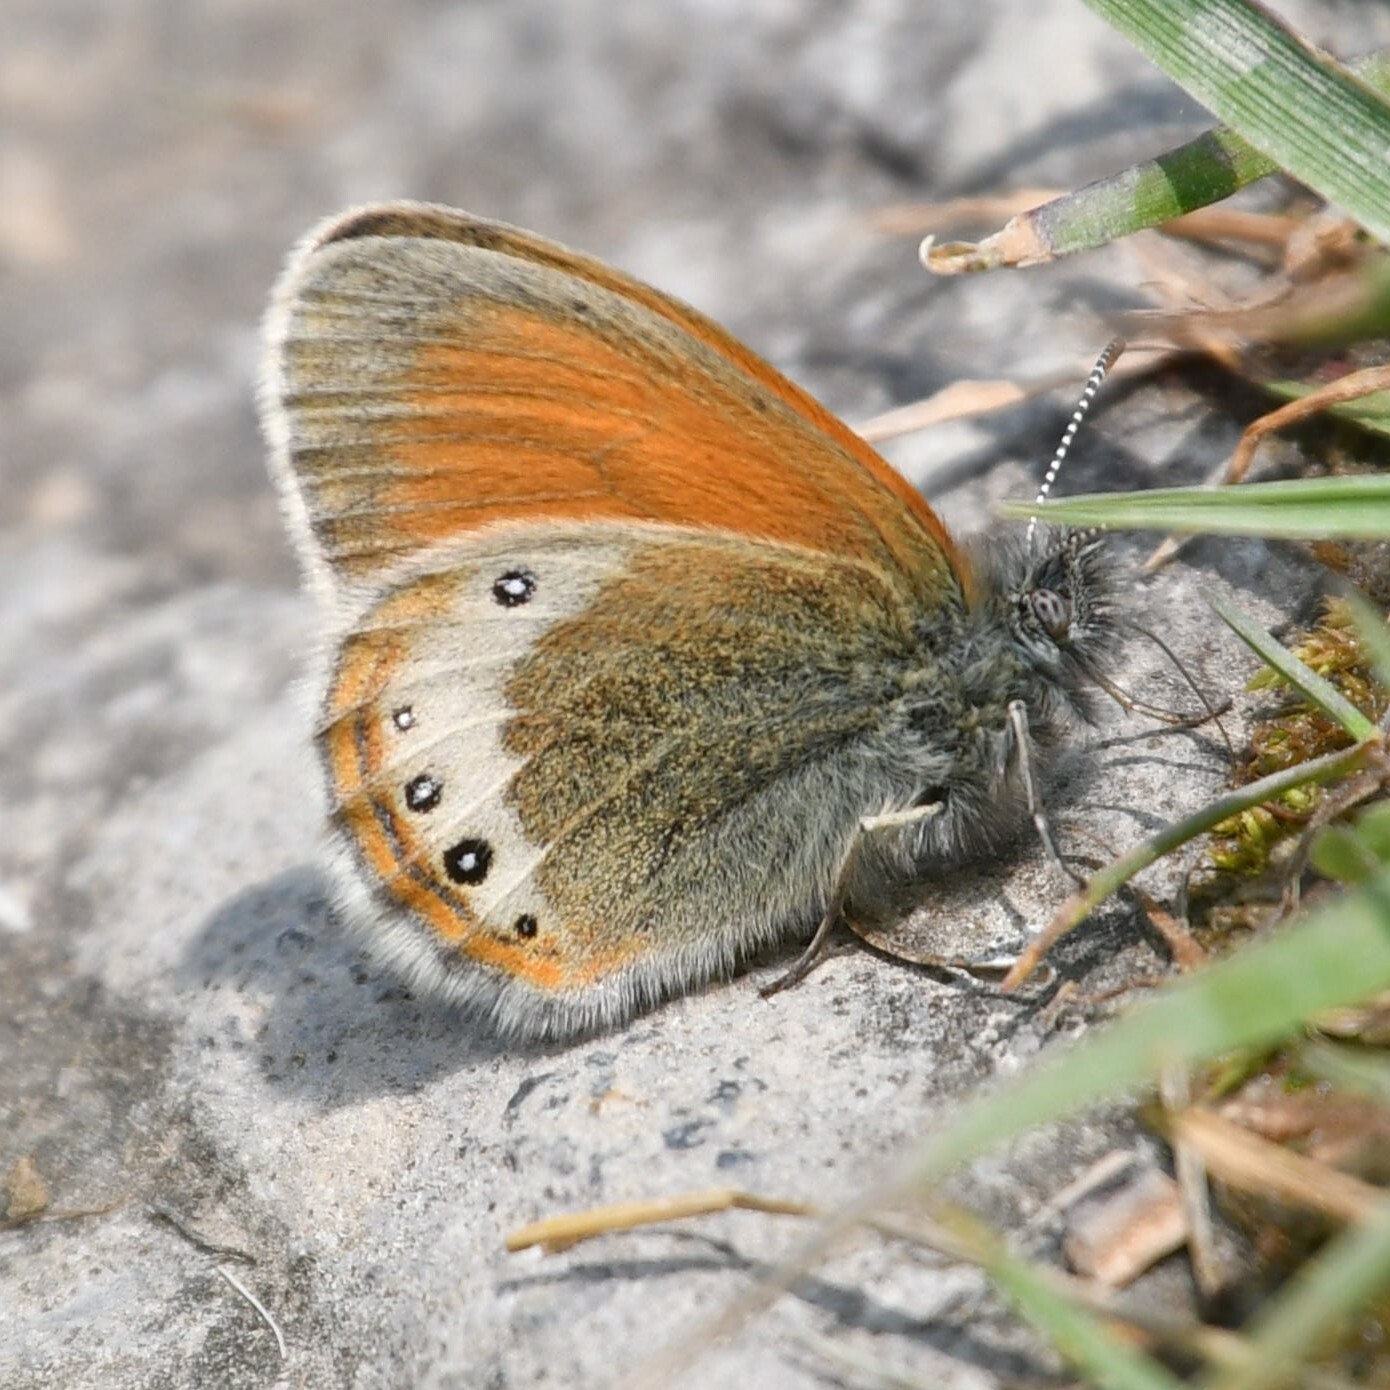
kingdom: Animalia
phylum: Arthropoda
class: Insecta
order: Lepidoptera
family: Nymphalidae
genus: Coenonympha
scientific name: Coenonympha
